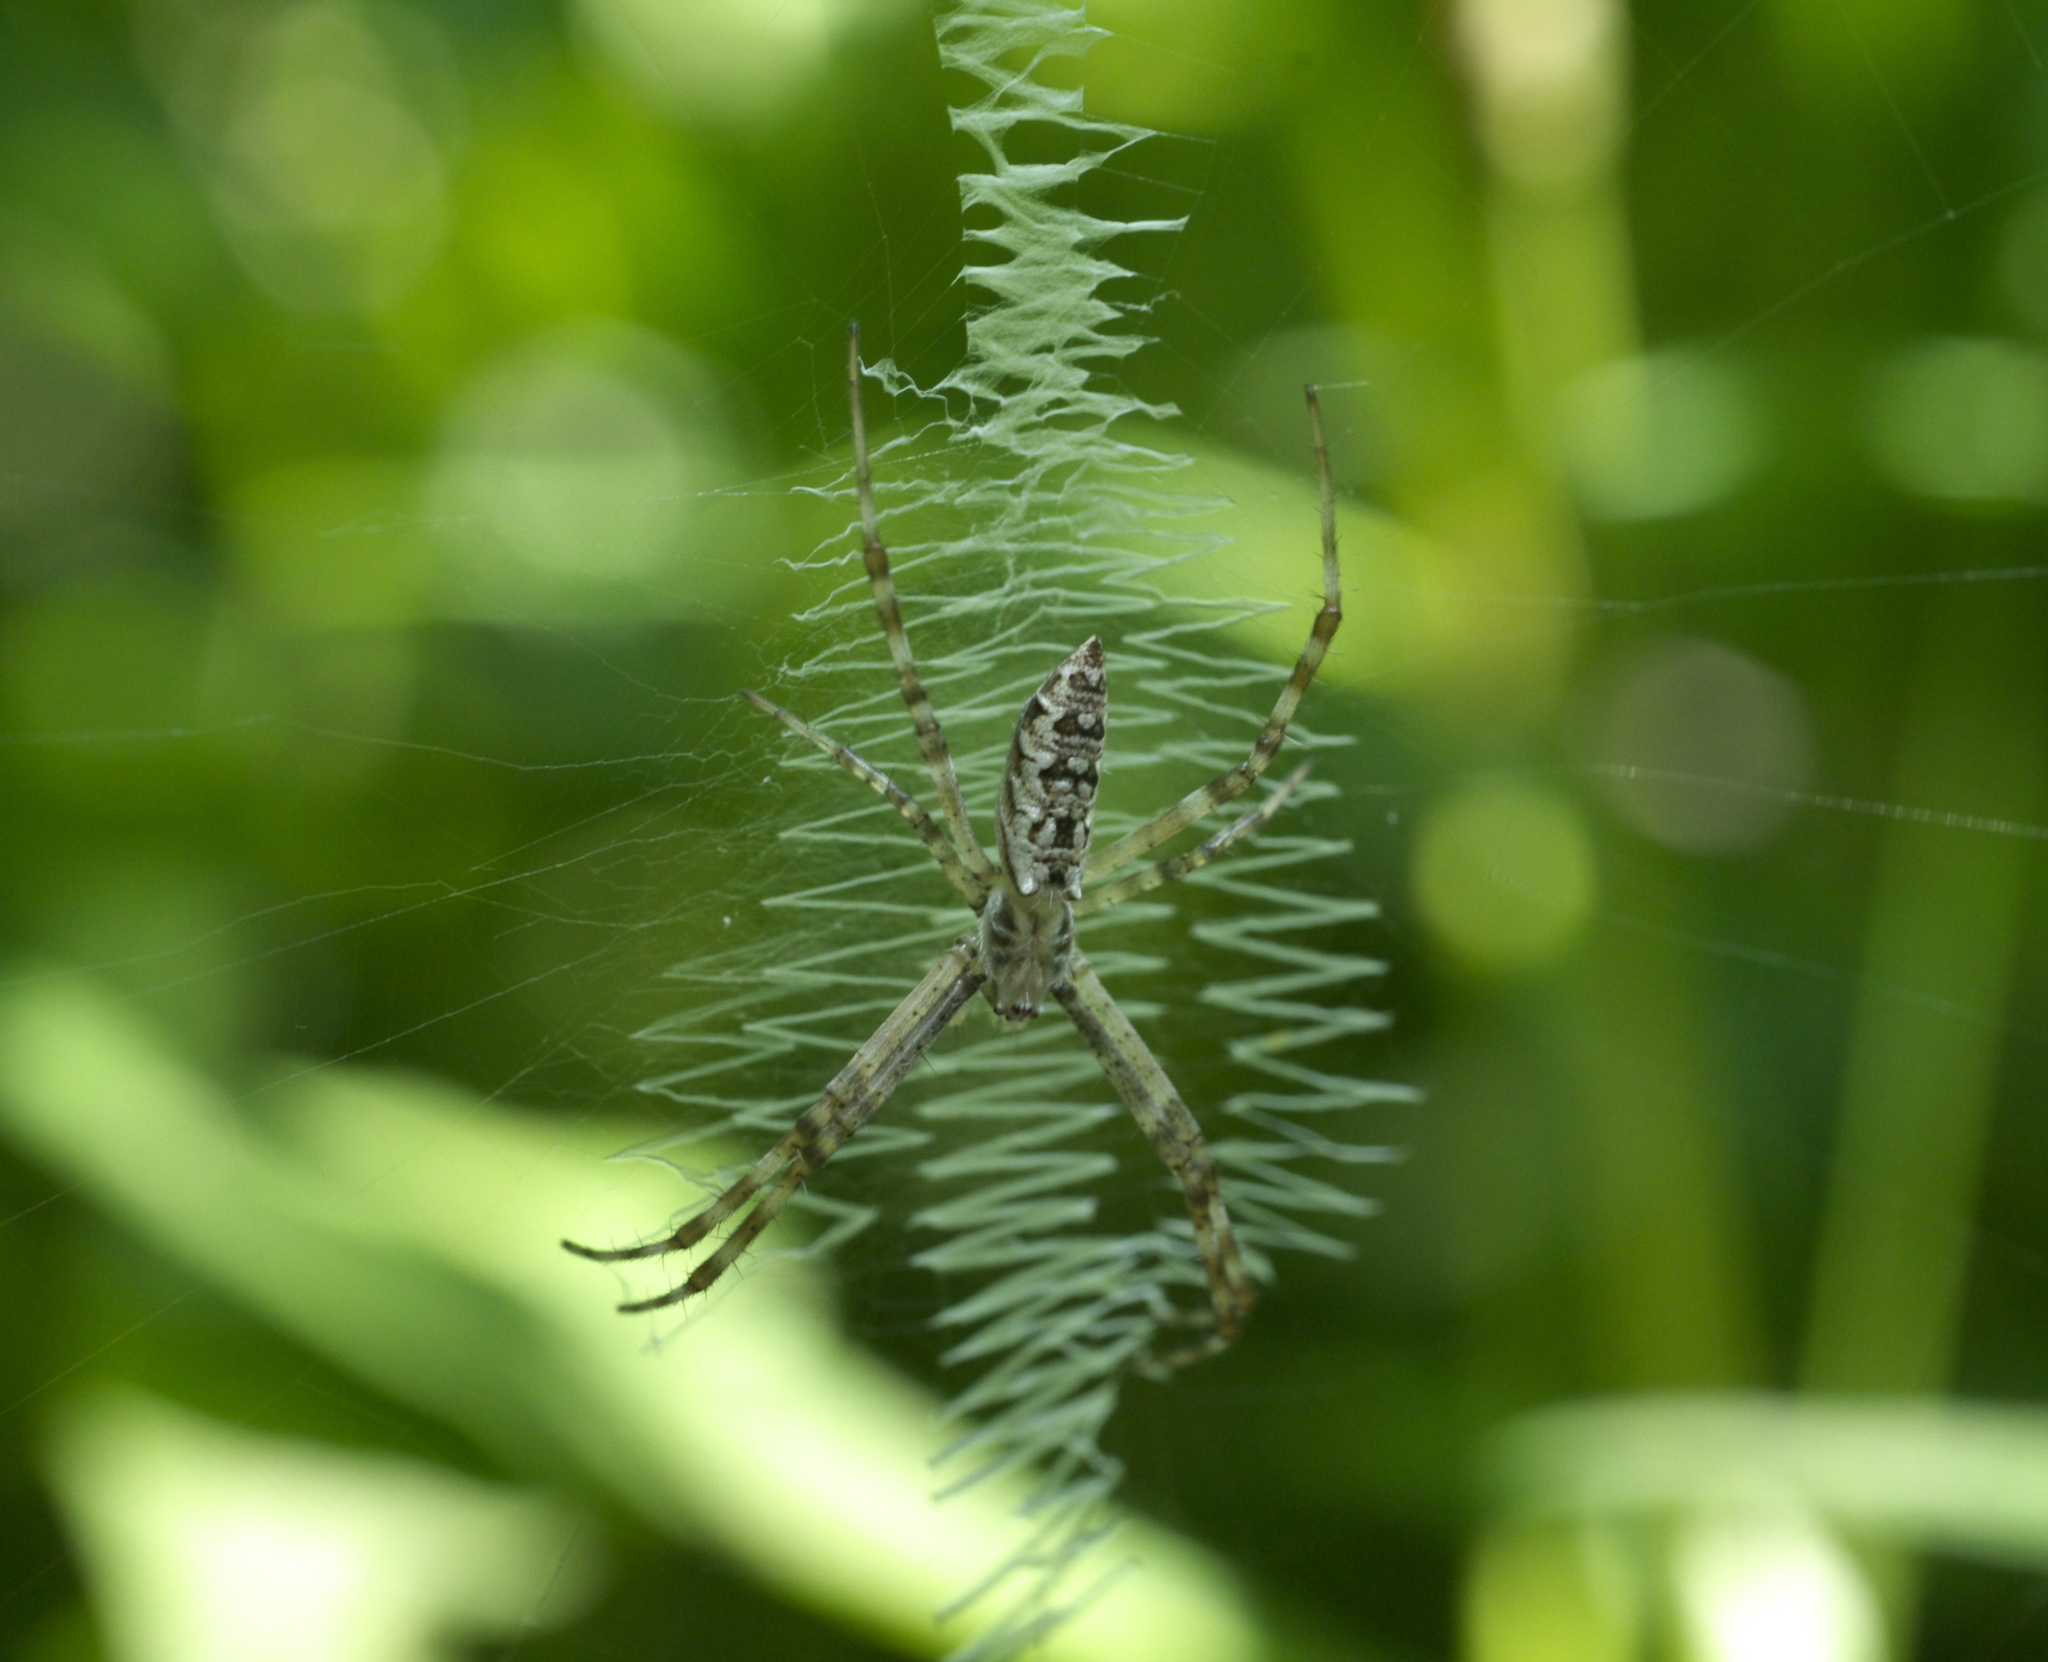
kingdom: Animalia
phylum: Arthropoda
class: Arachnida
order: Araneae
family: Araneidae
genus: Argiope
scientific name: Argiope aurantia
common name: Orb weavers
